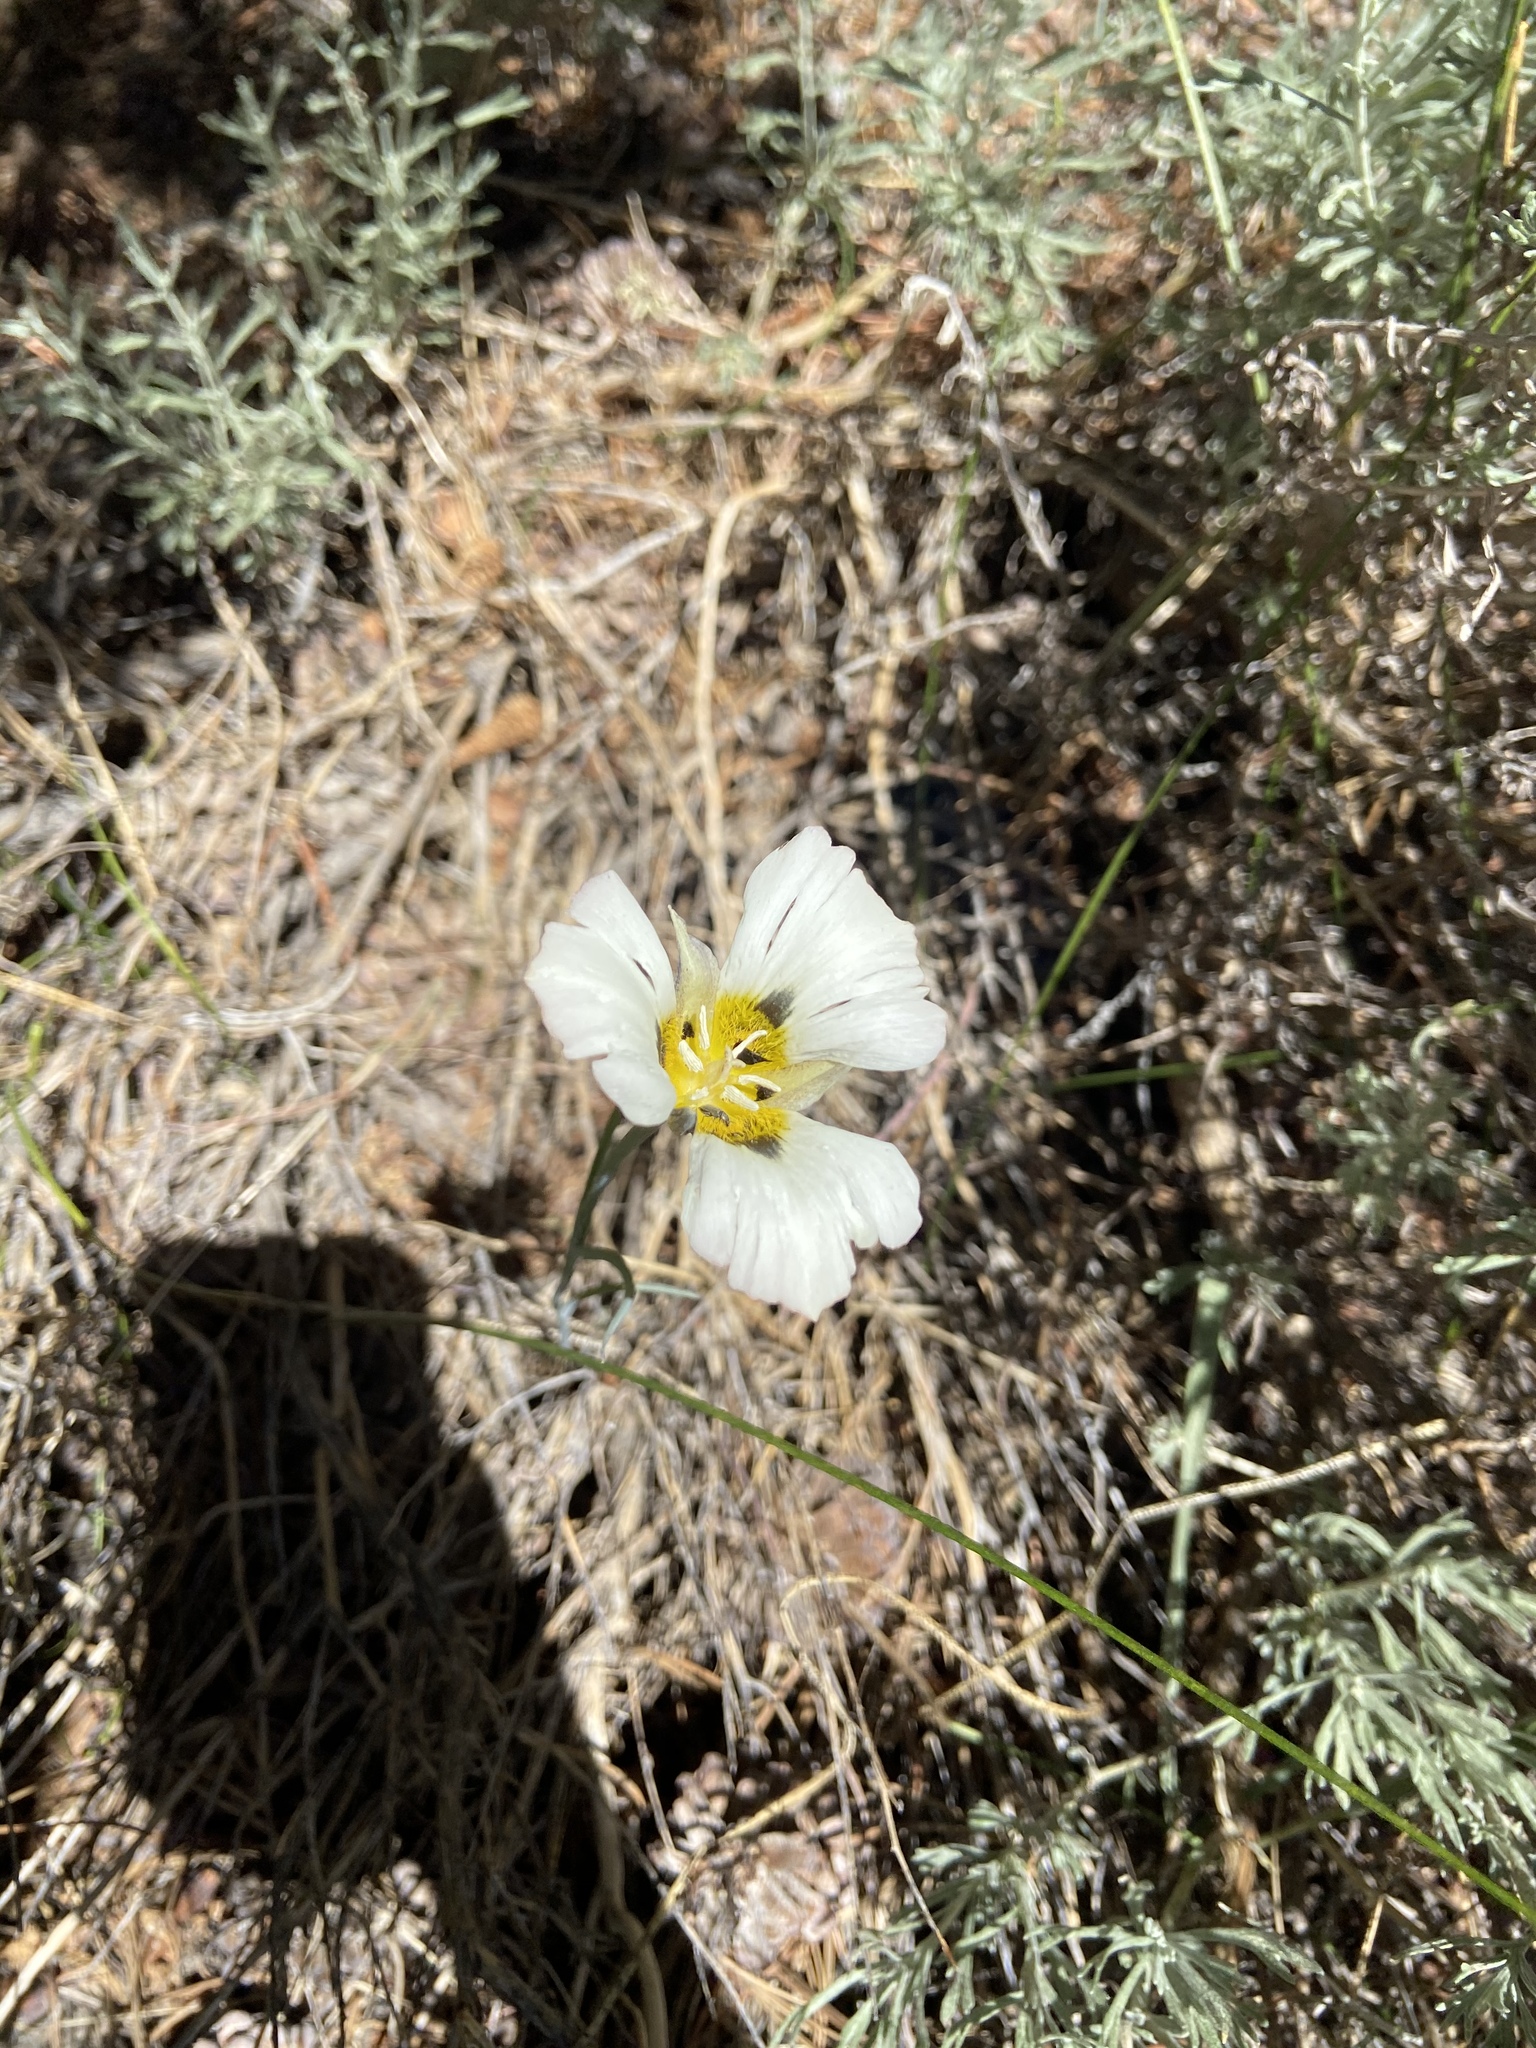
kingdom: Plantae
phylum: Tracheophyta
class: Liliopsida
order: Liliales
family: Liliaceae
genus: Calochortus
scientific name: Calochortus leichtlinii
